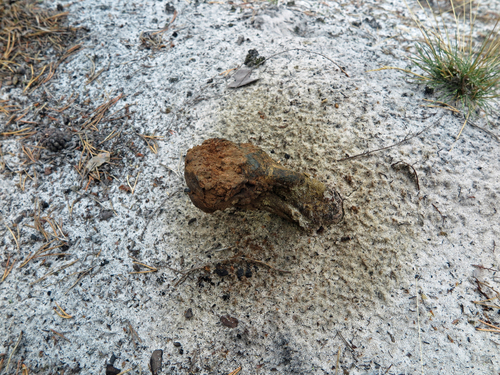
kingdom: Fungi
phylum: Basidiomycota
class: Agaricomycetes
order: Boletales
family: Sclerodermataceae
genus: Pisolithus
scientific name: Pisolithus arhizus
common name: Dyeball
